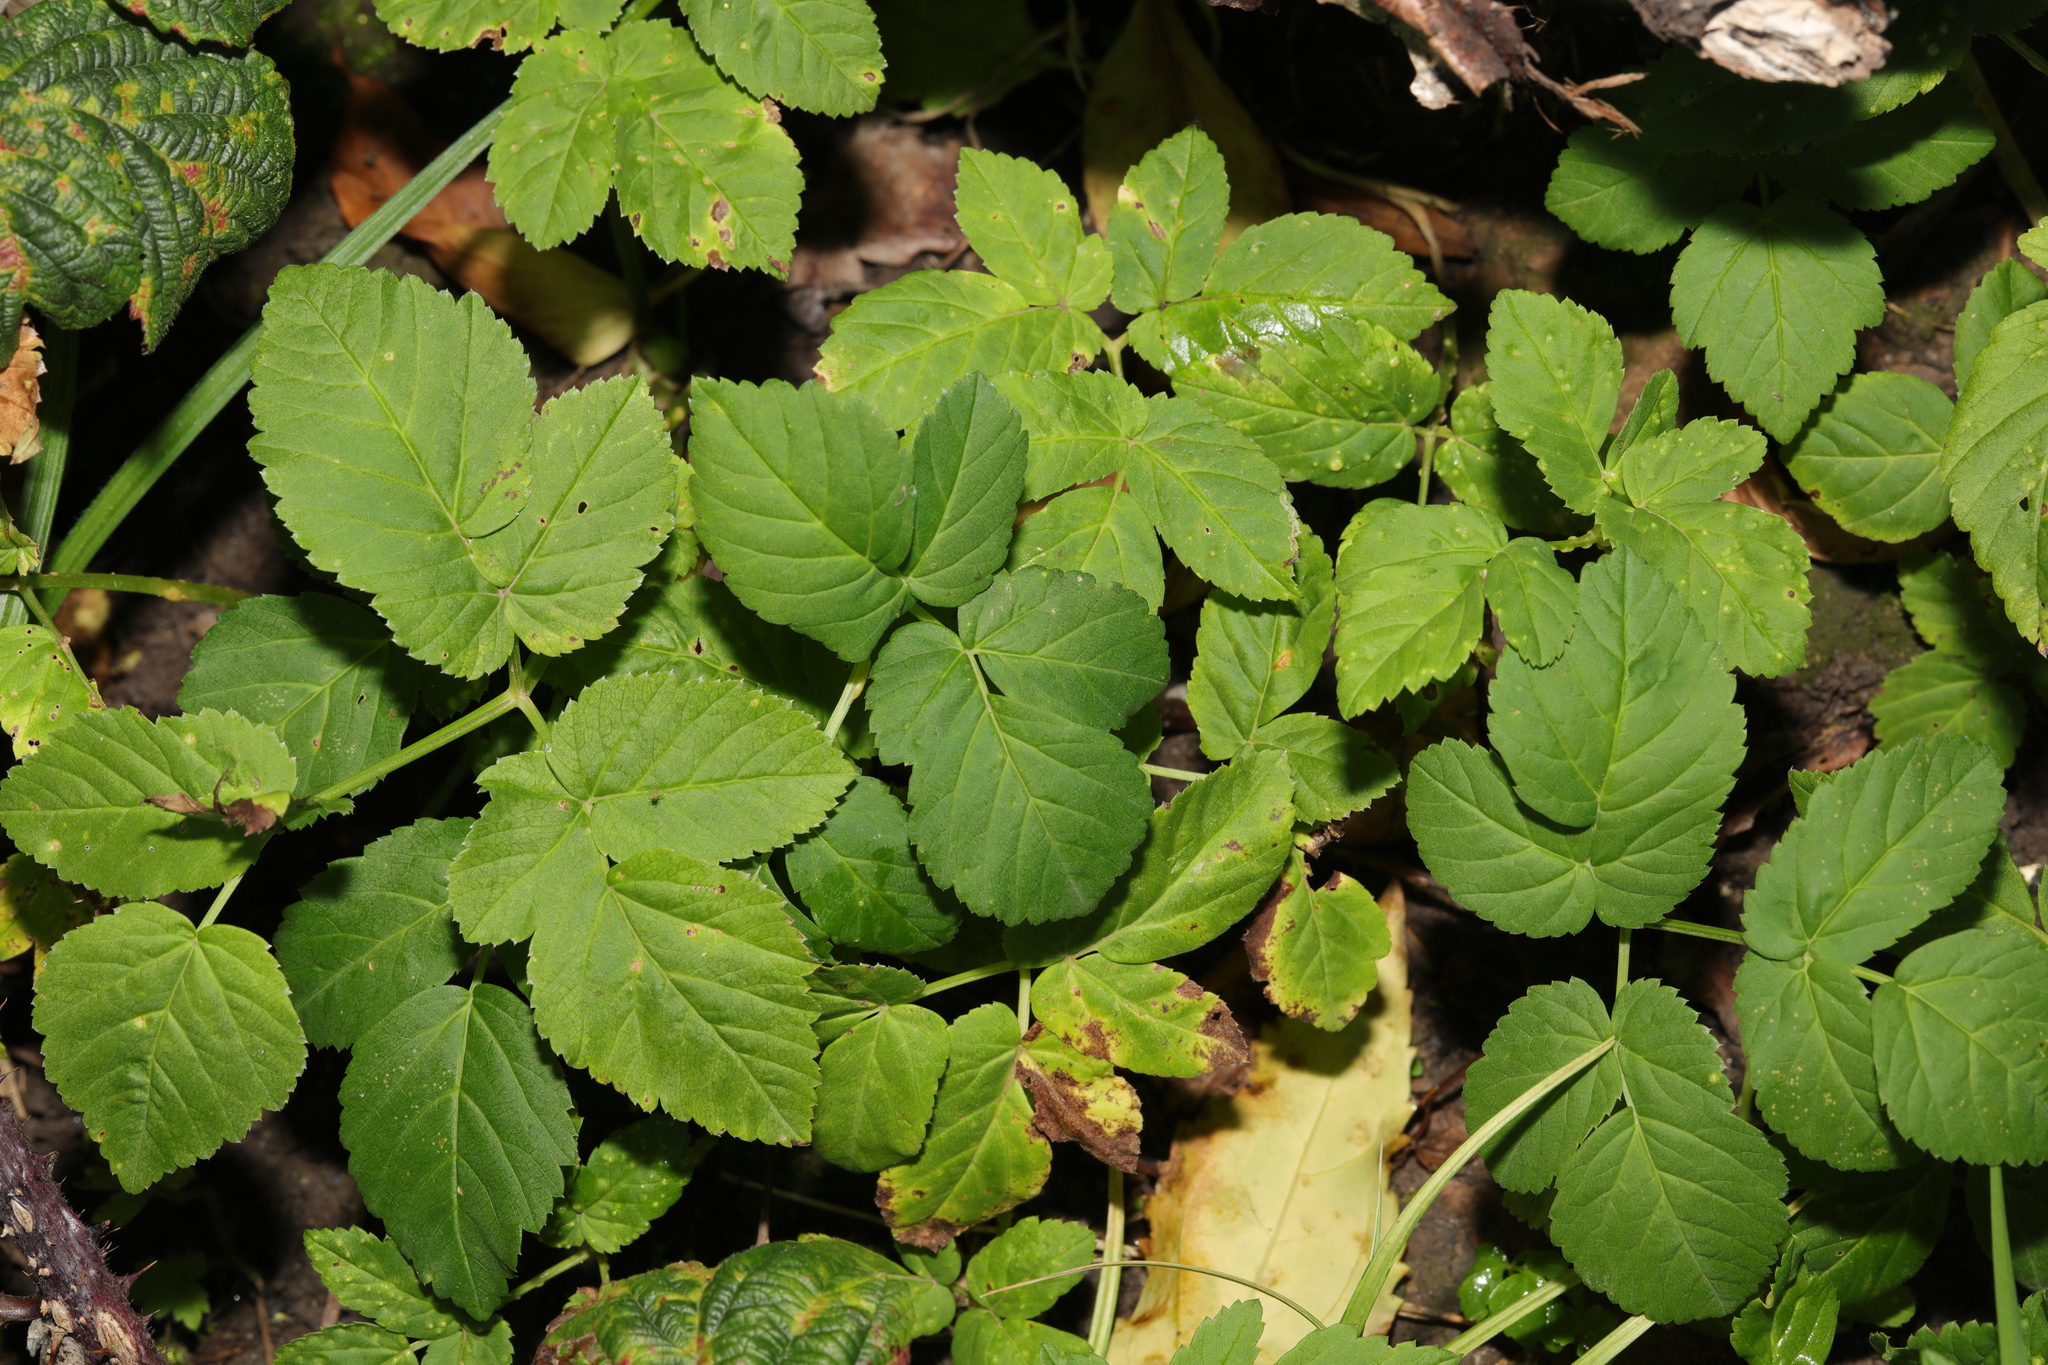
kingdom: Plantae
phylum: Tracheophyta
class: Magnoliopsida
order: Apiales
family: Apiaceae
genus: Aegopodium
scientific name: Aegopodium podagraria
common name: Ground-elder
